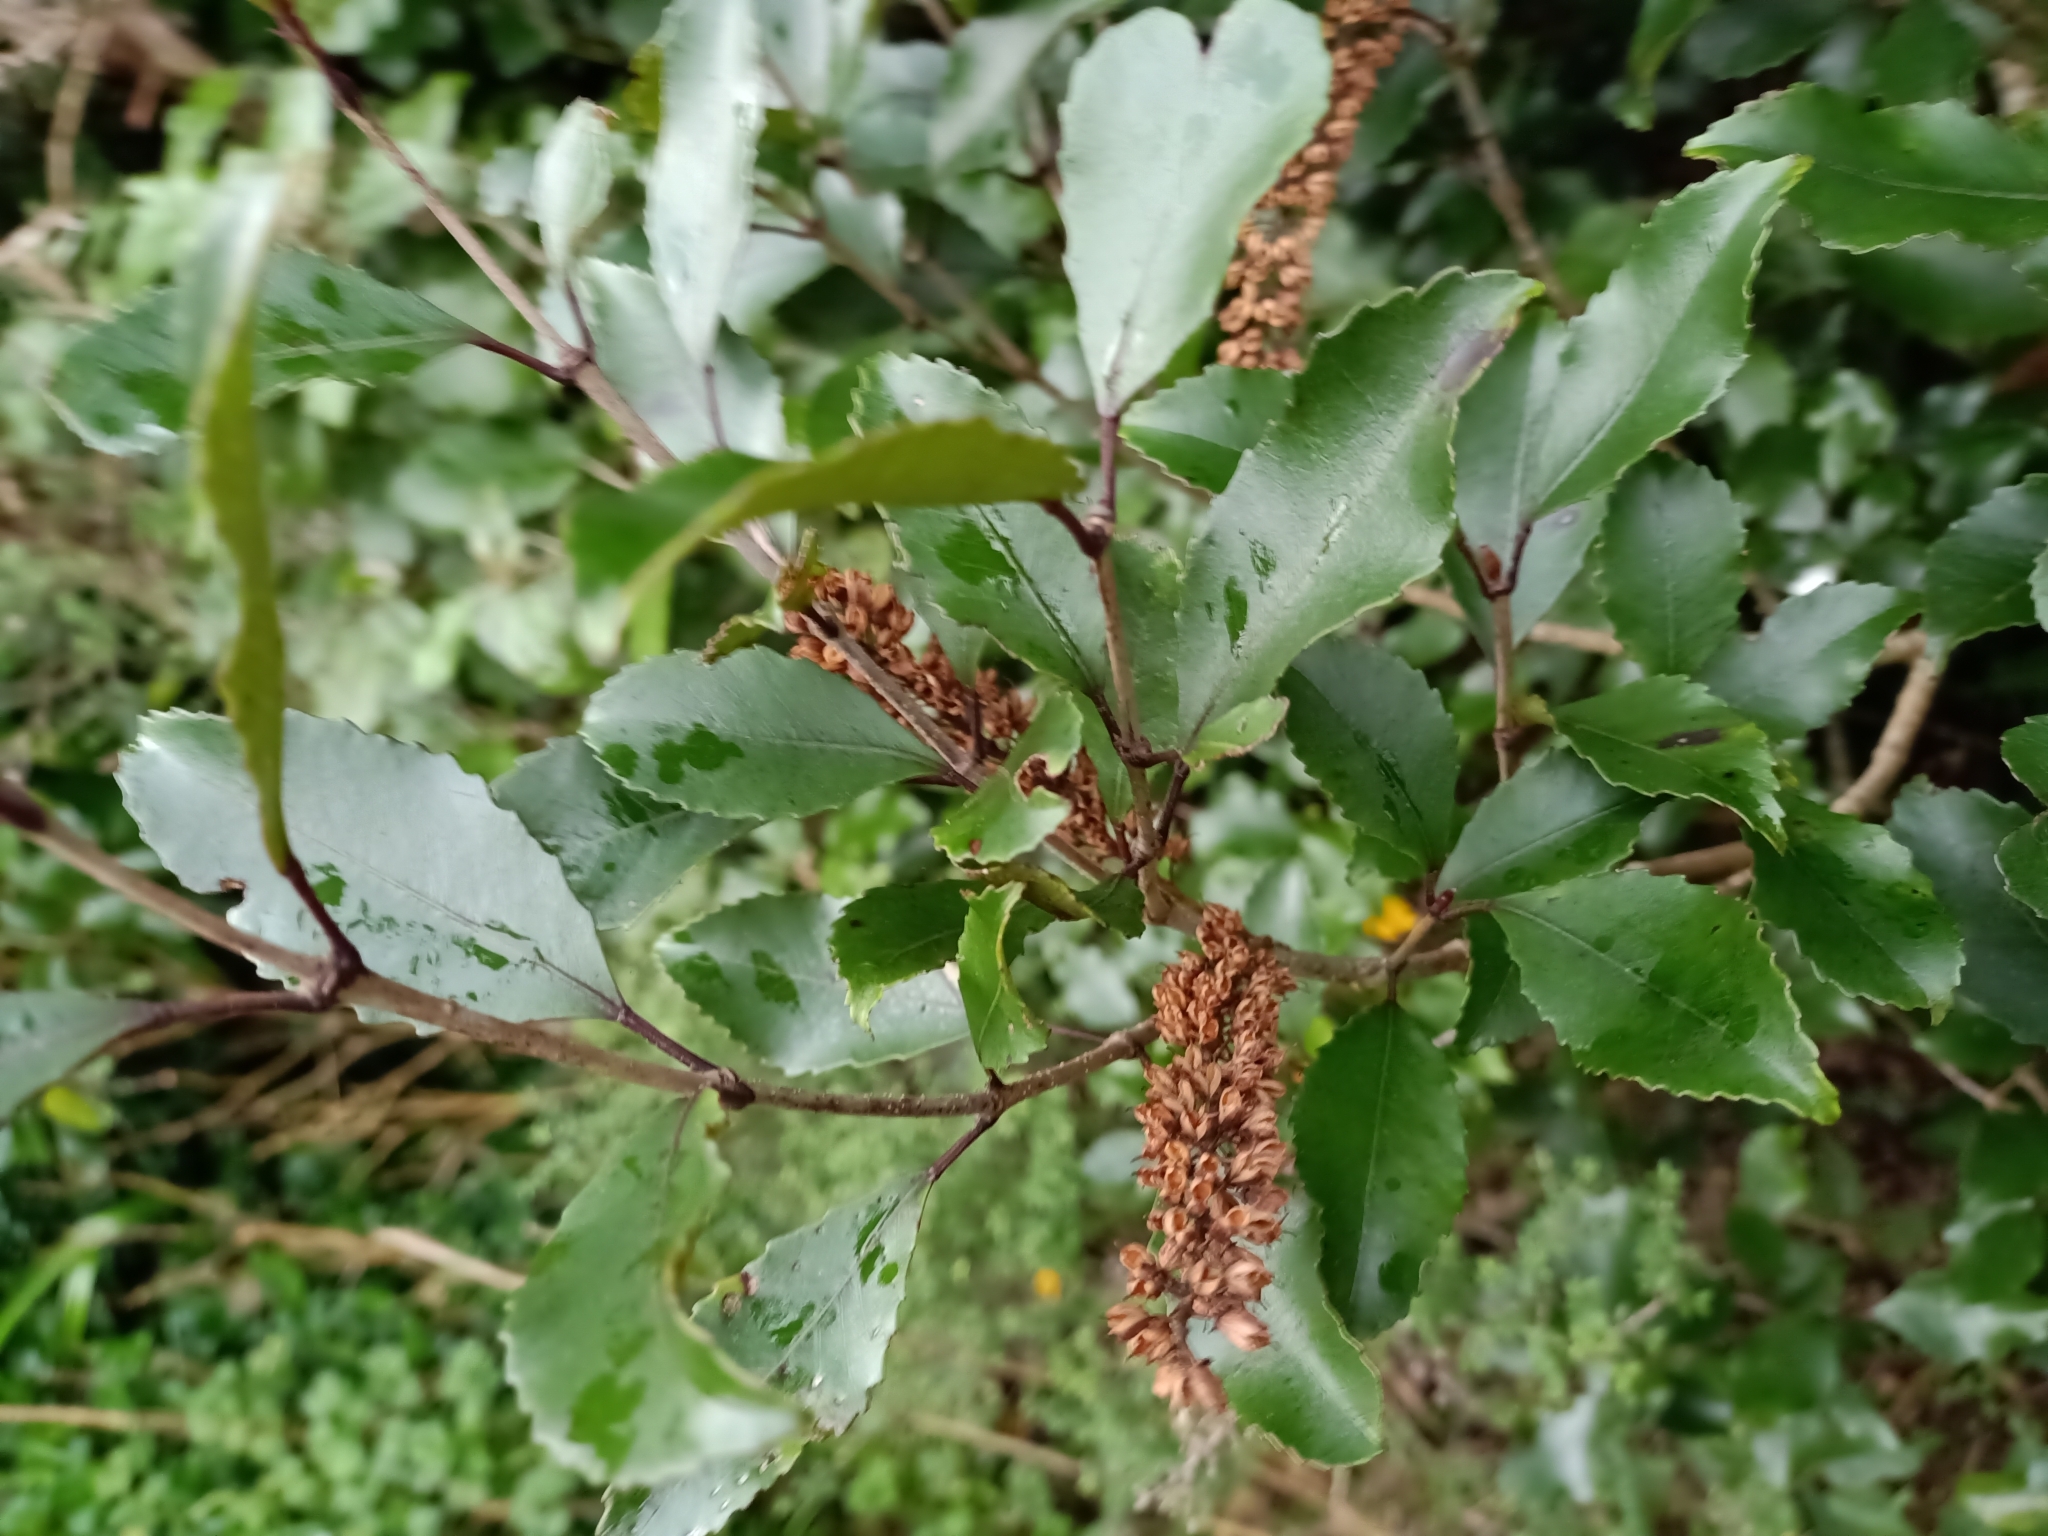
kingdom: Plantae
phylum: Tracheophyta
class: Magnoliopsida
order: Oxalidales
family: Cunoniaceae
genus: Pterophylla
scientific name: Pterophylla racemosa
